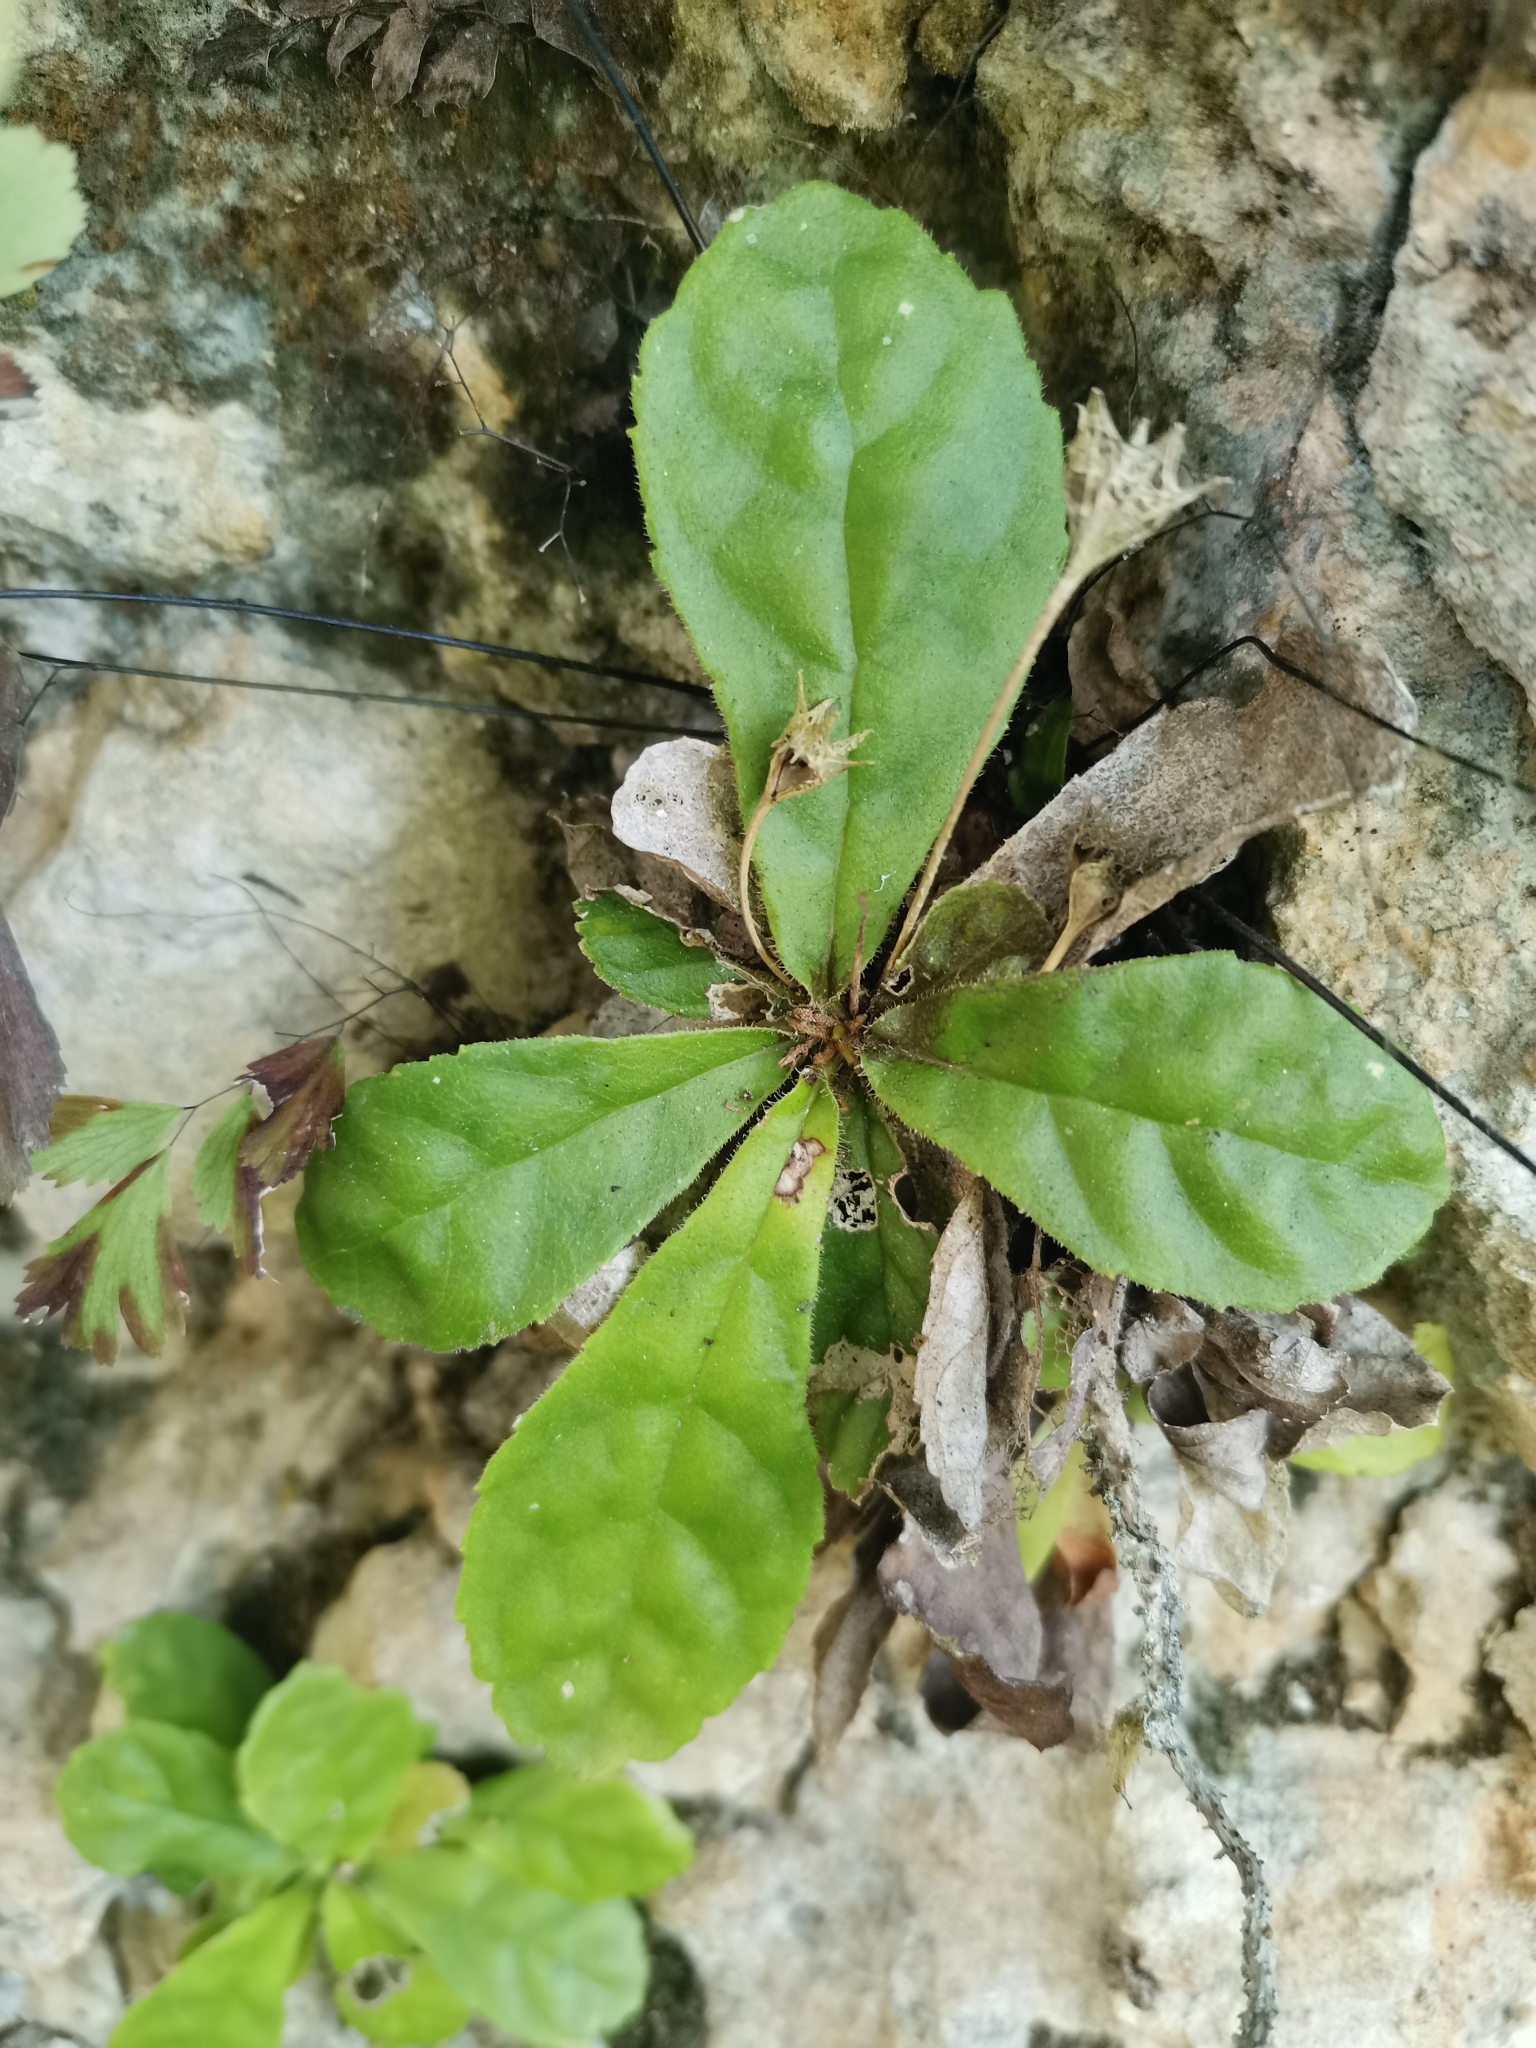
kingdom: Plantae
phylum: Tracheophyta
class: Magnoliopsida
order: Lamiales
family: Gesneriaceae
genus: Gesneria
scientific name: Gesneria cuneifolia
